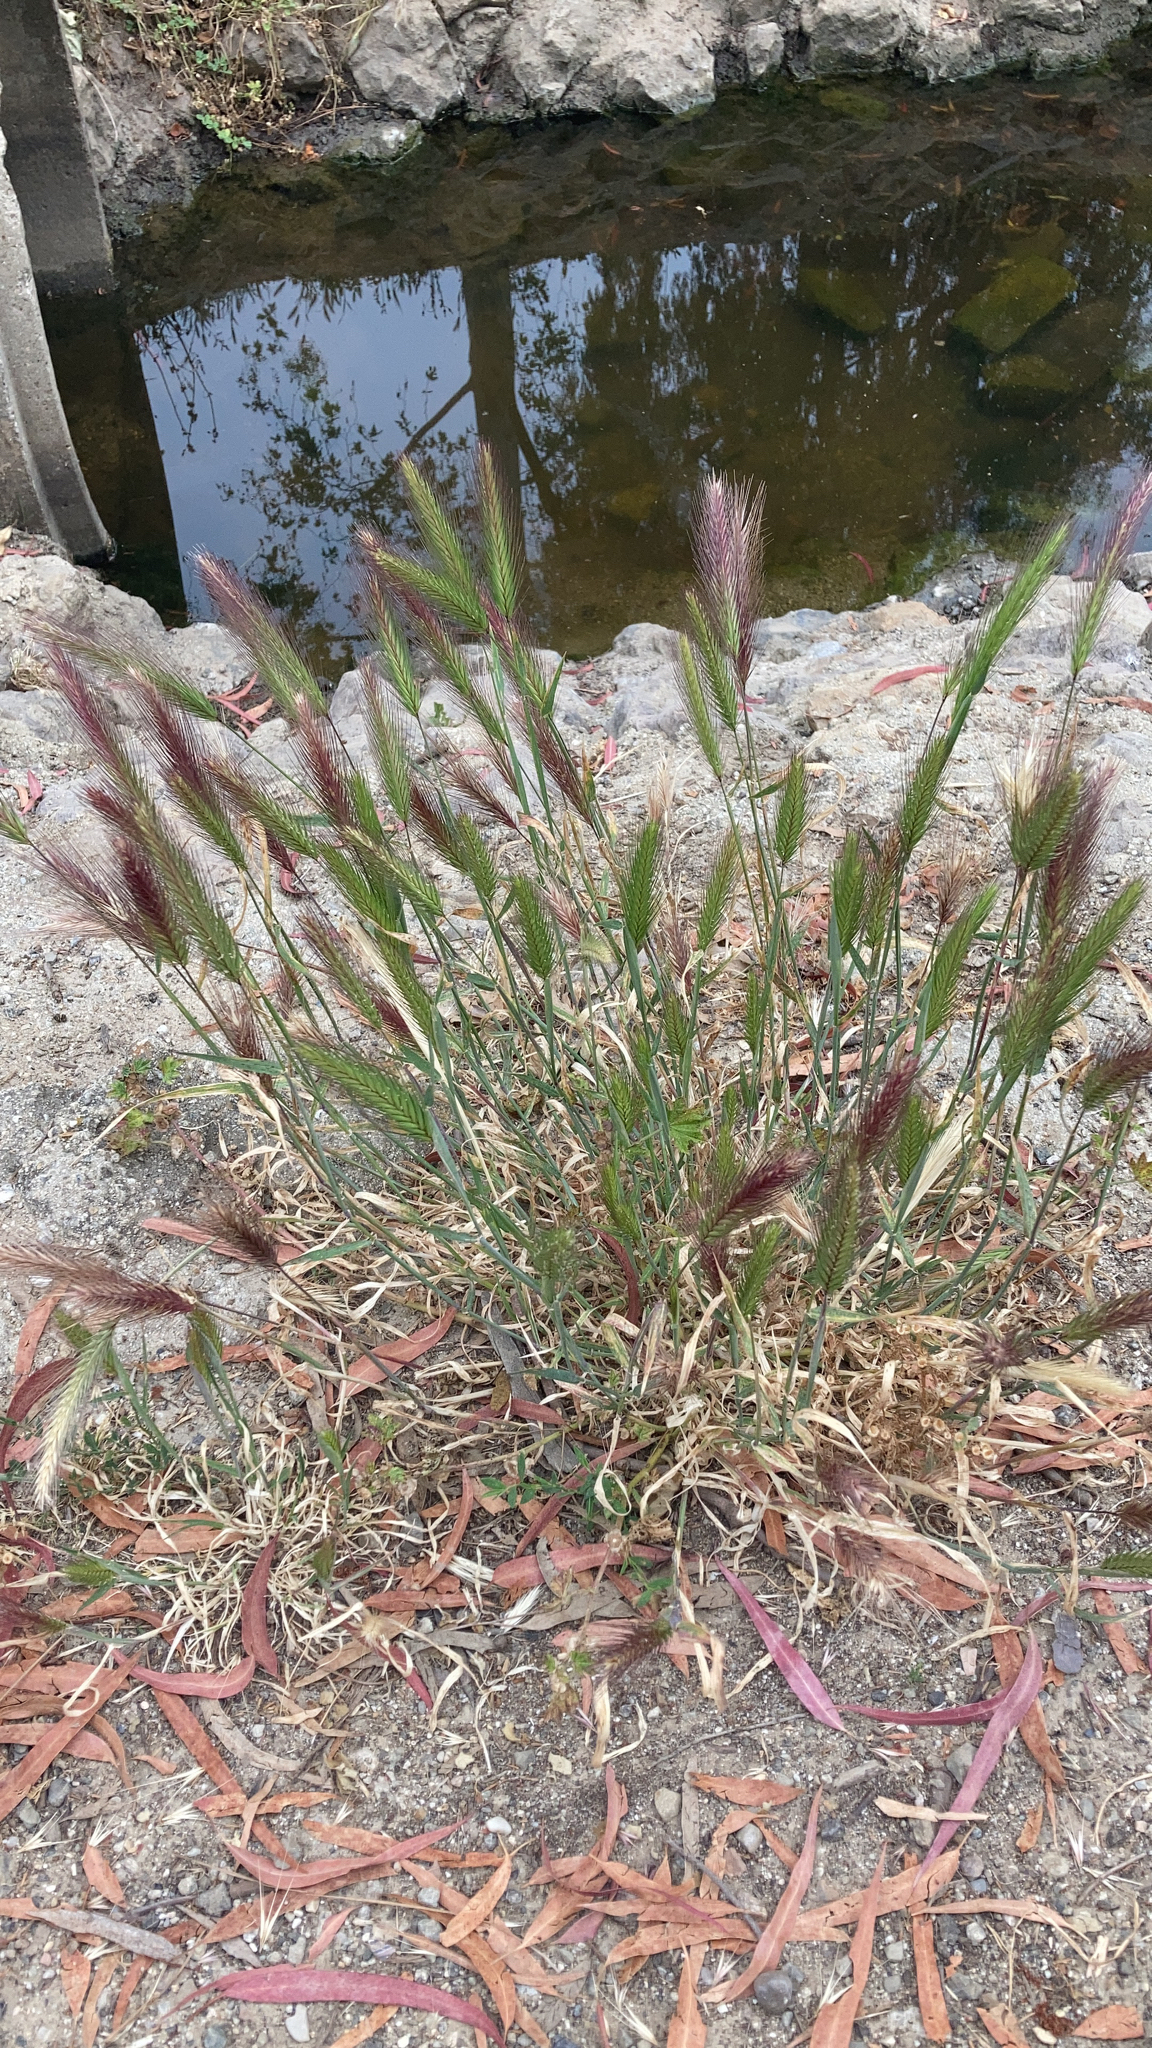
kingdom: Plantae
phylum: Tracheophyta
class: Liliopsida
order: Poales
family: Poaceae
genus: Hordeum
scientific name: Hordeum murinum
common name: Wall barley
